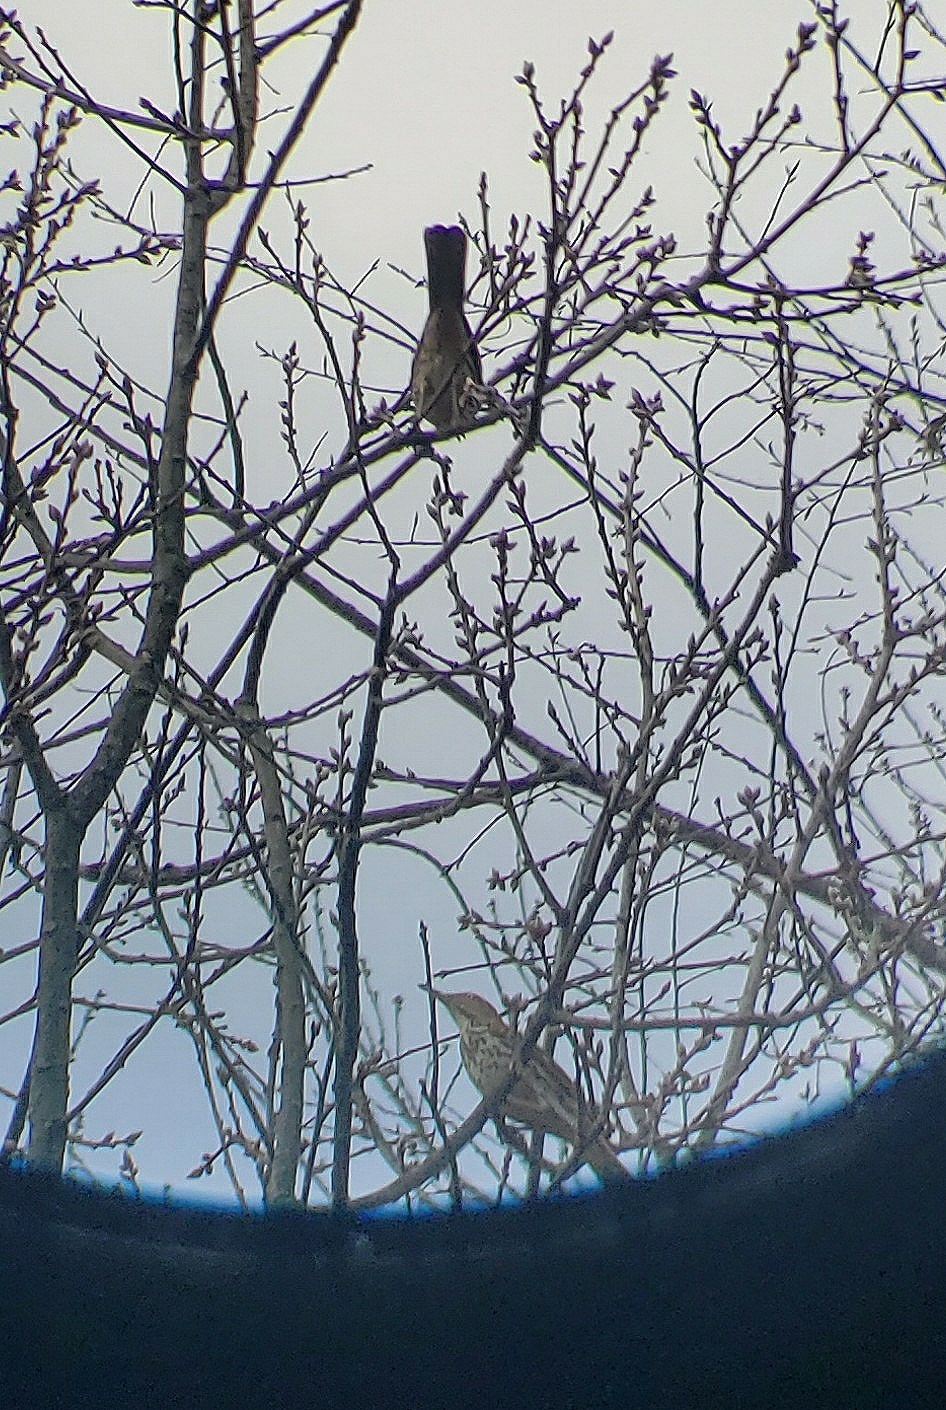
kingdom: Animalia
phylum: Chordata
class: Aves
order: Passeriformes
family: Mimidae
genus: Toxostoma
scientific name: Toxostoma rufum
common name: Brown thrasher
